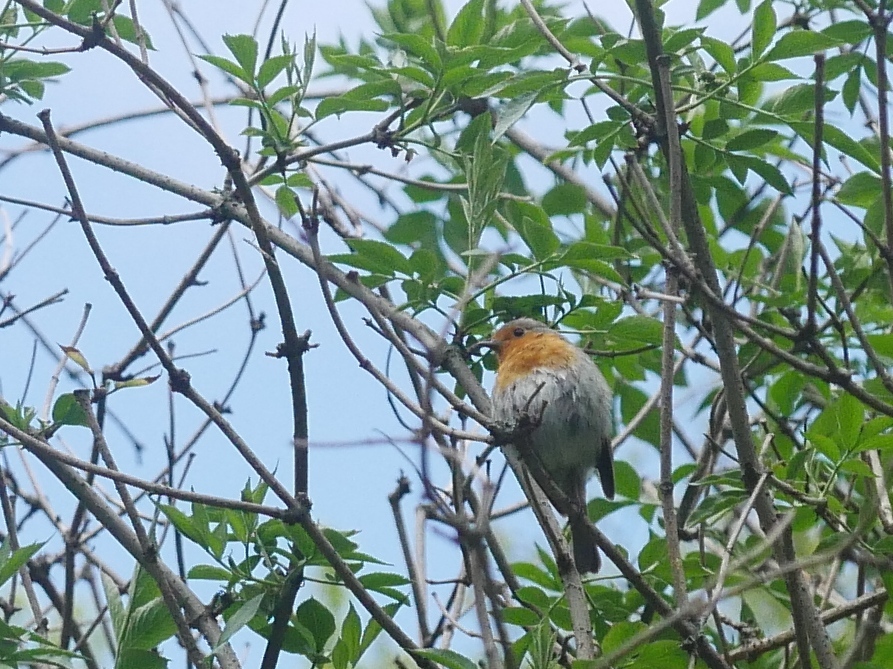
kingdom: Animalia
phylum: Chordata
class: Aves
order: Passeriformes
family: Muscicapidae
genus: Erithacus
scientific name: Erithacus rubecula
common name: European robin
